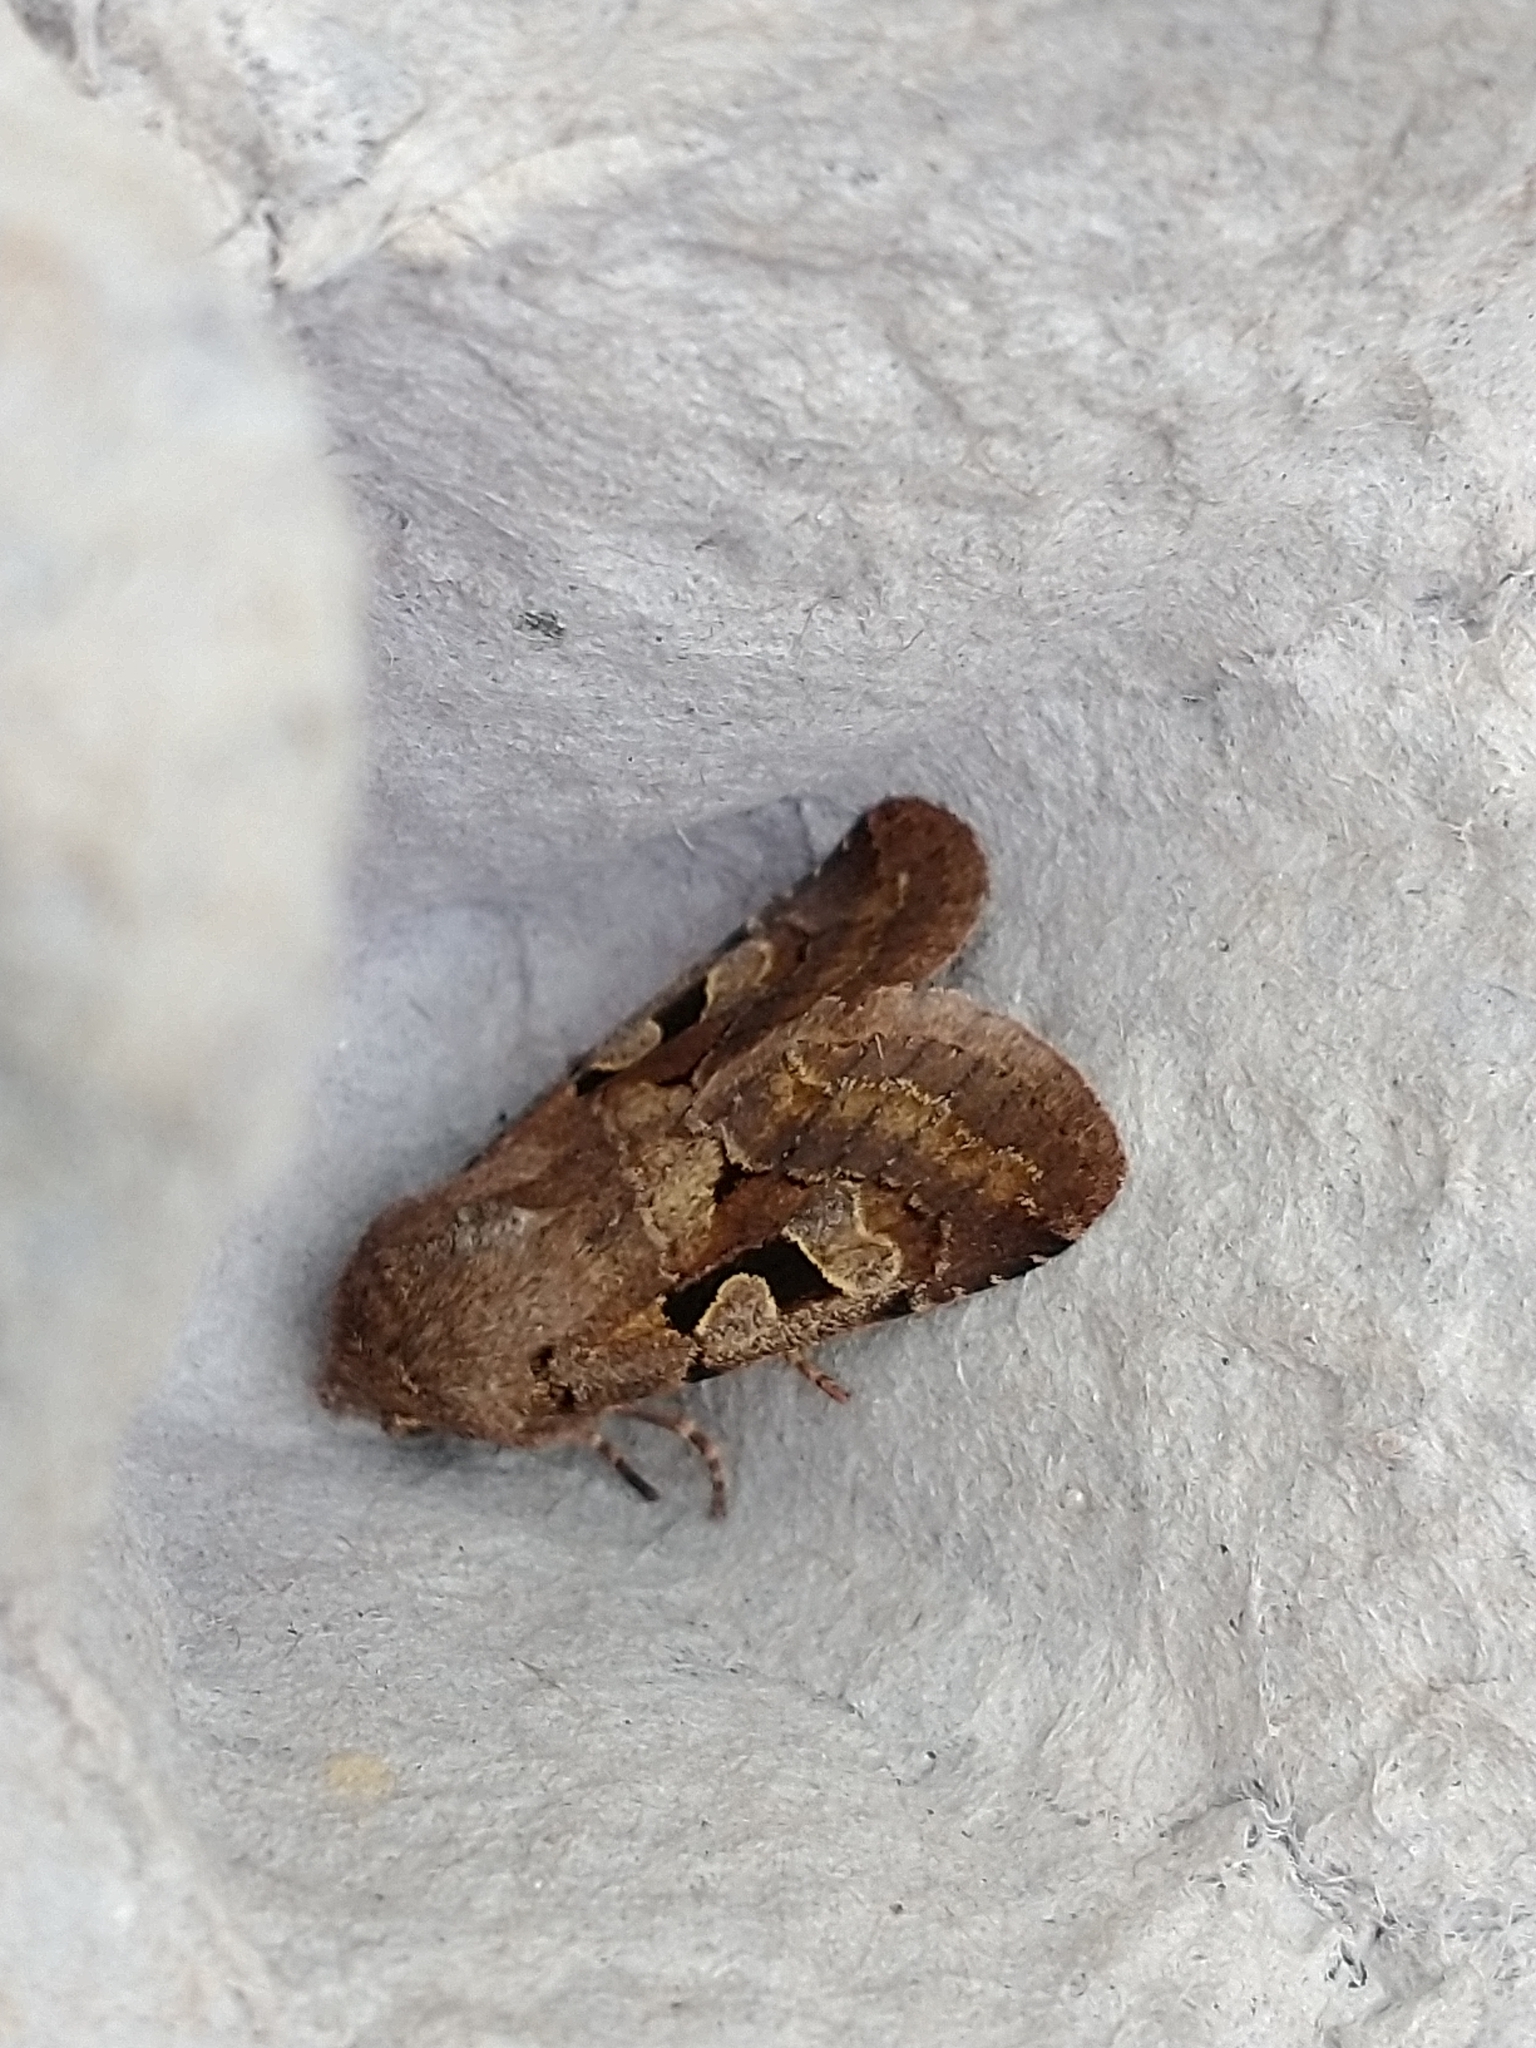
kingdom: Animalia
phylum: Arthropoda
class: Insecta
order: Lepidoptera
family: Noctuidae
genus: Orthosia
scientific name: Orthosia gothica
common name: Hebrew character
